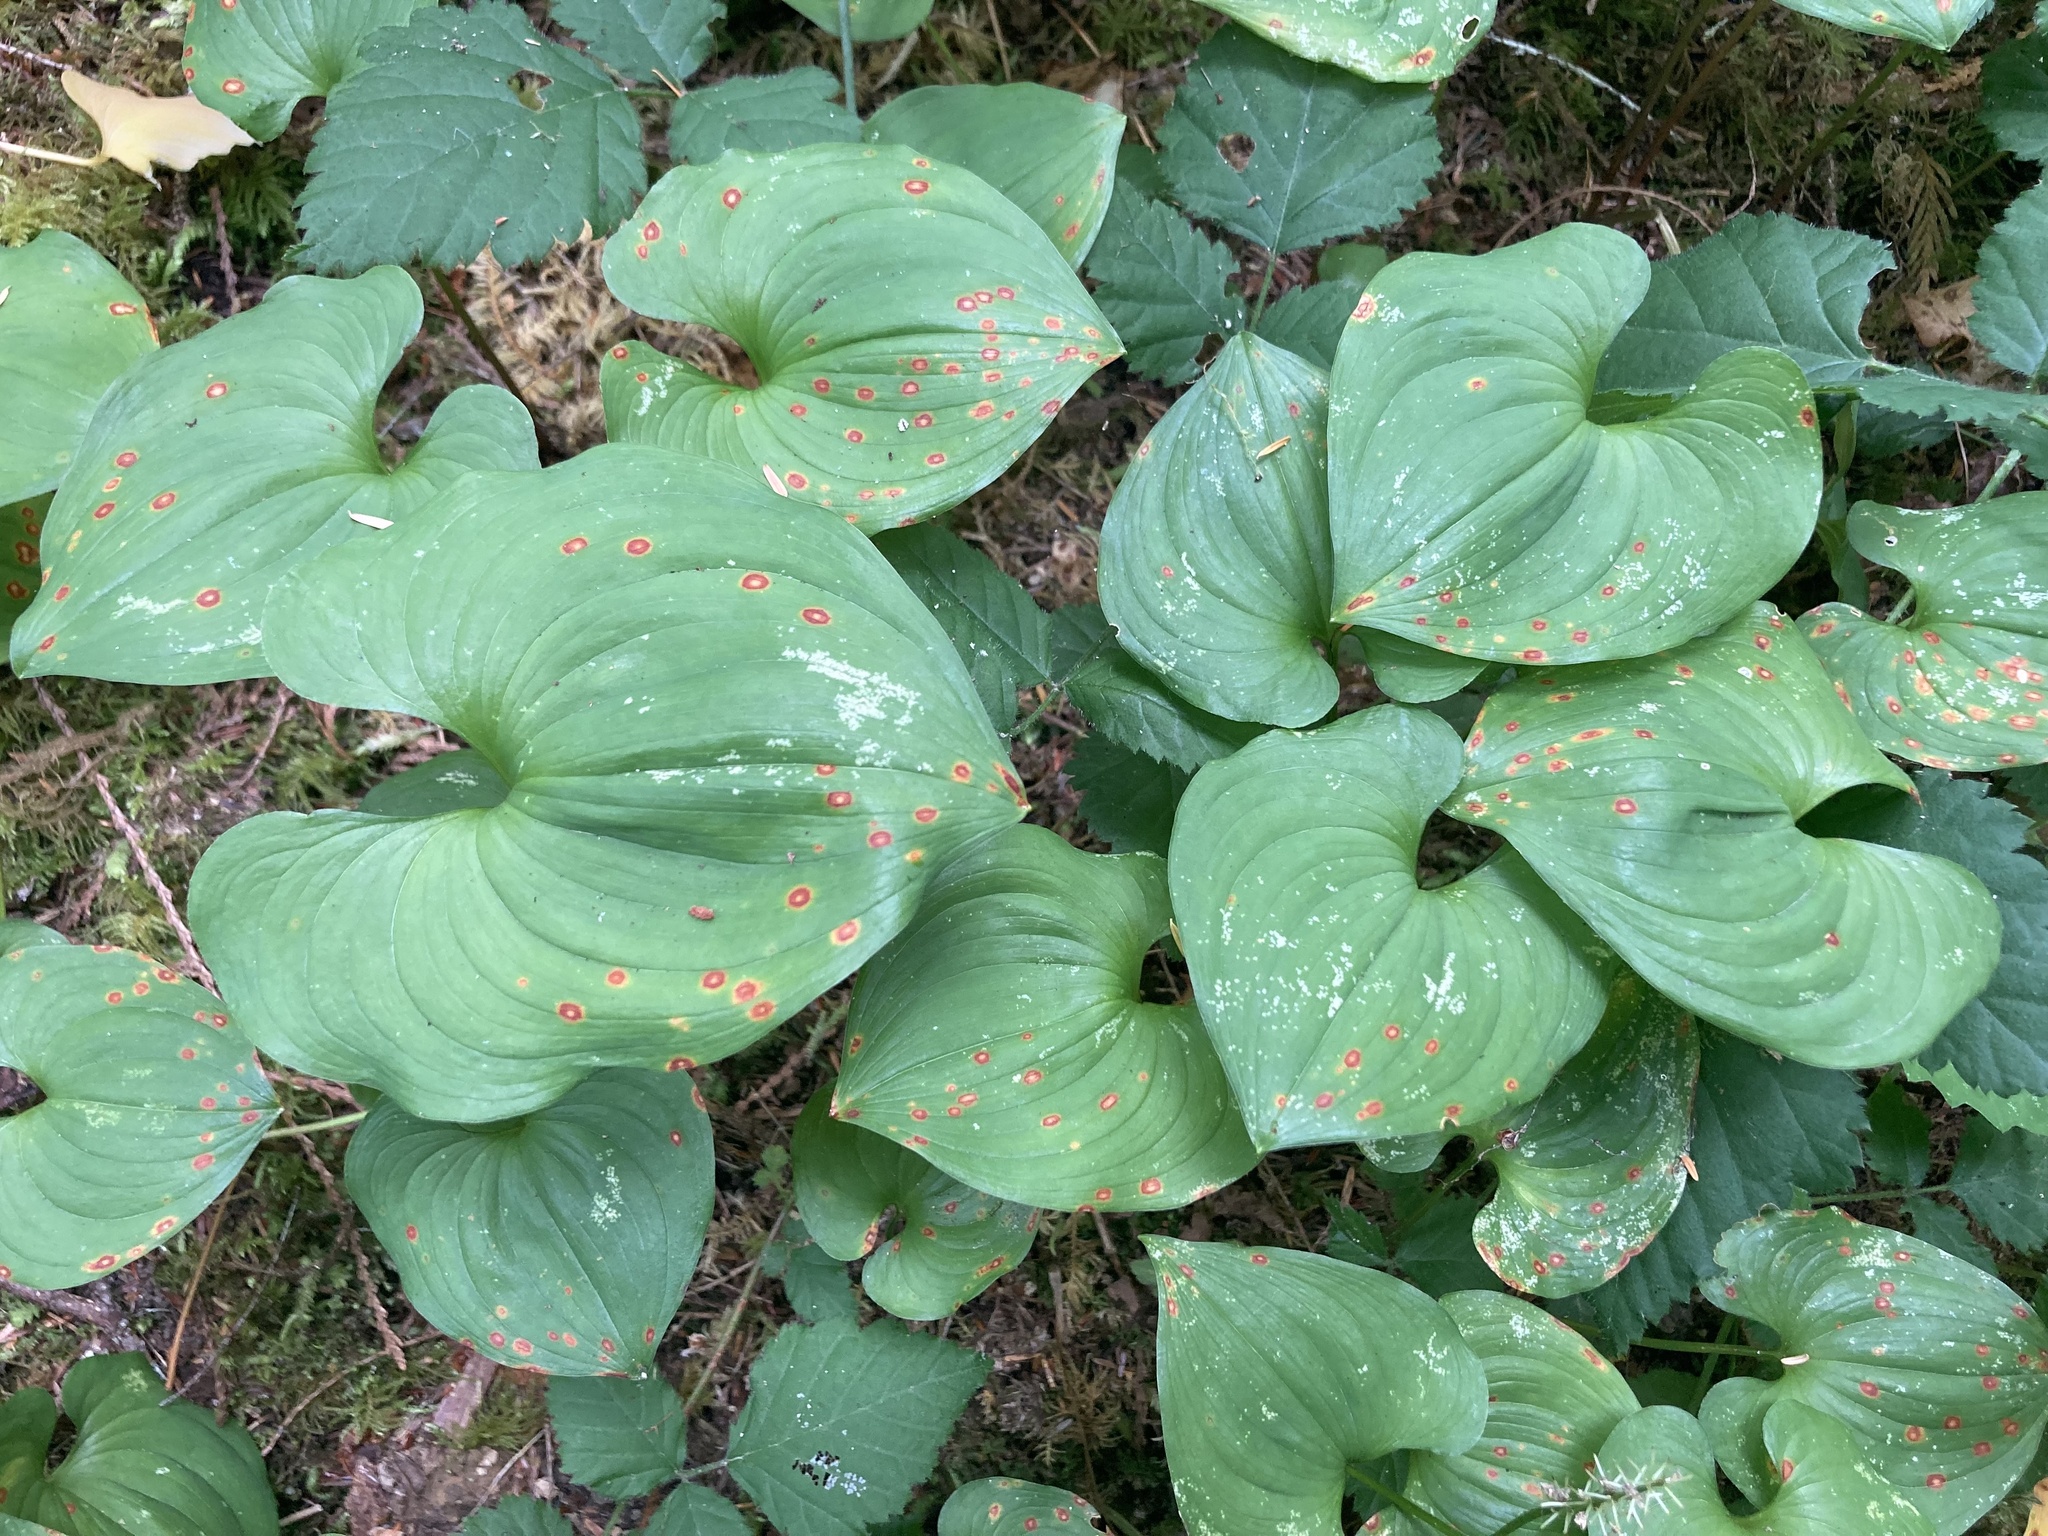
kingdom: Plantae
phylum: Tracheophyta
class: Liliopsida
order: Asparagales
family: Asparagaceae
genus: Maianthemum
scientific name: Maianthemum dilatatum
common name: False lily-of-the-valley
